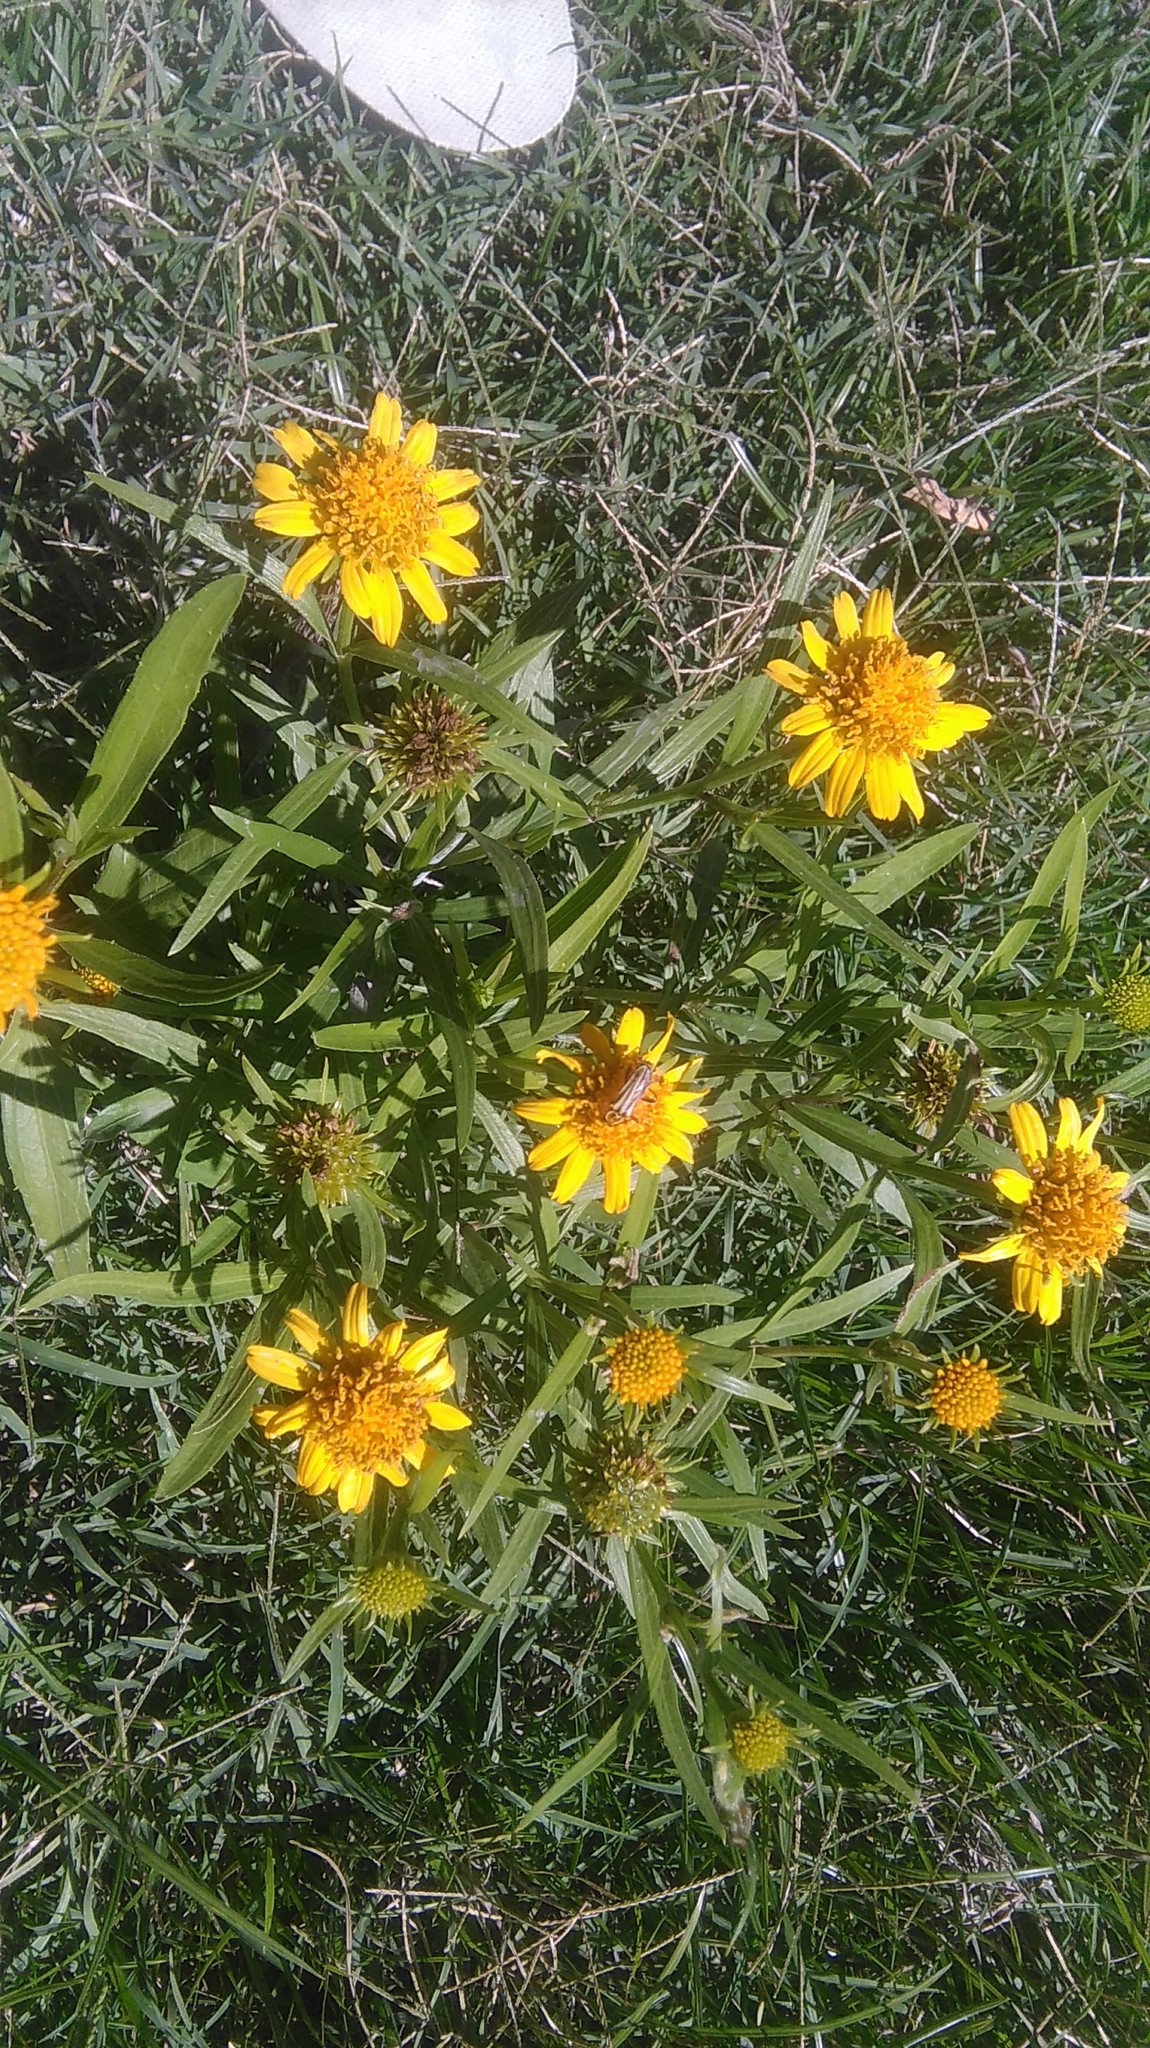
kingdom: Plantae
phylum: Tracheophyta
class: Magnoliopsida
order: Asterales
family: Asteraceae
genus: Pascalia
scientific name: Pascalia glauca
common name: Beach creeping oxeye
